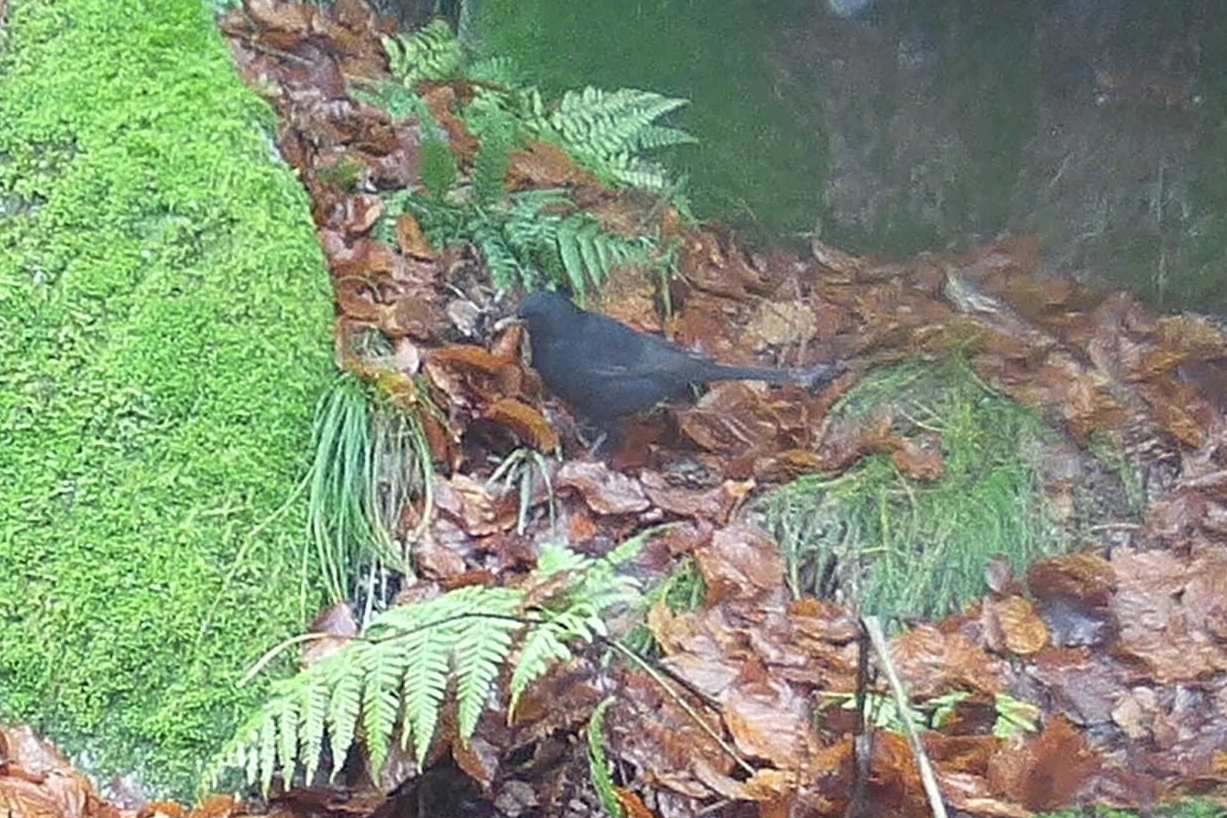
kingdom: Animalia
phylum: Chordata
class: Aves
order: Passeriformes
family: Turdidae
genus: Turdus
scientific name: Turdus merula
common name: Common blackbird
